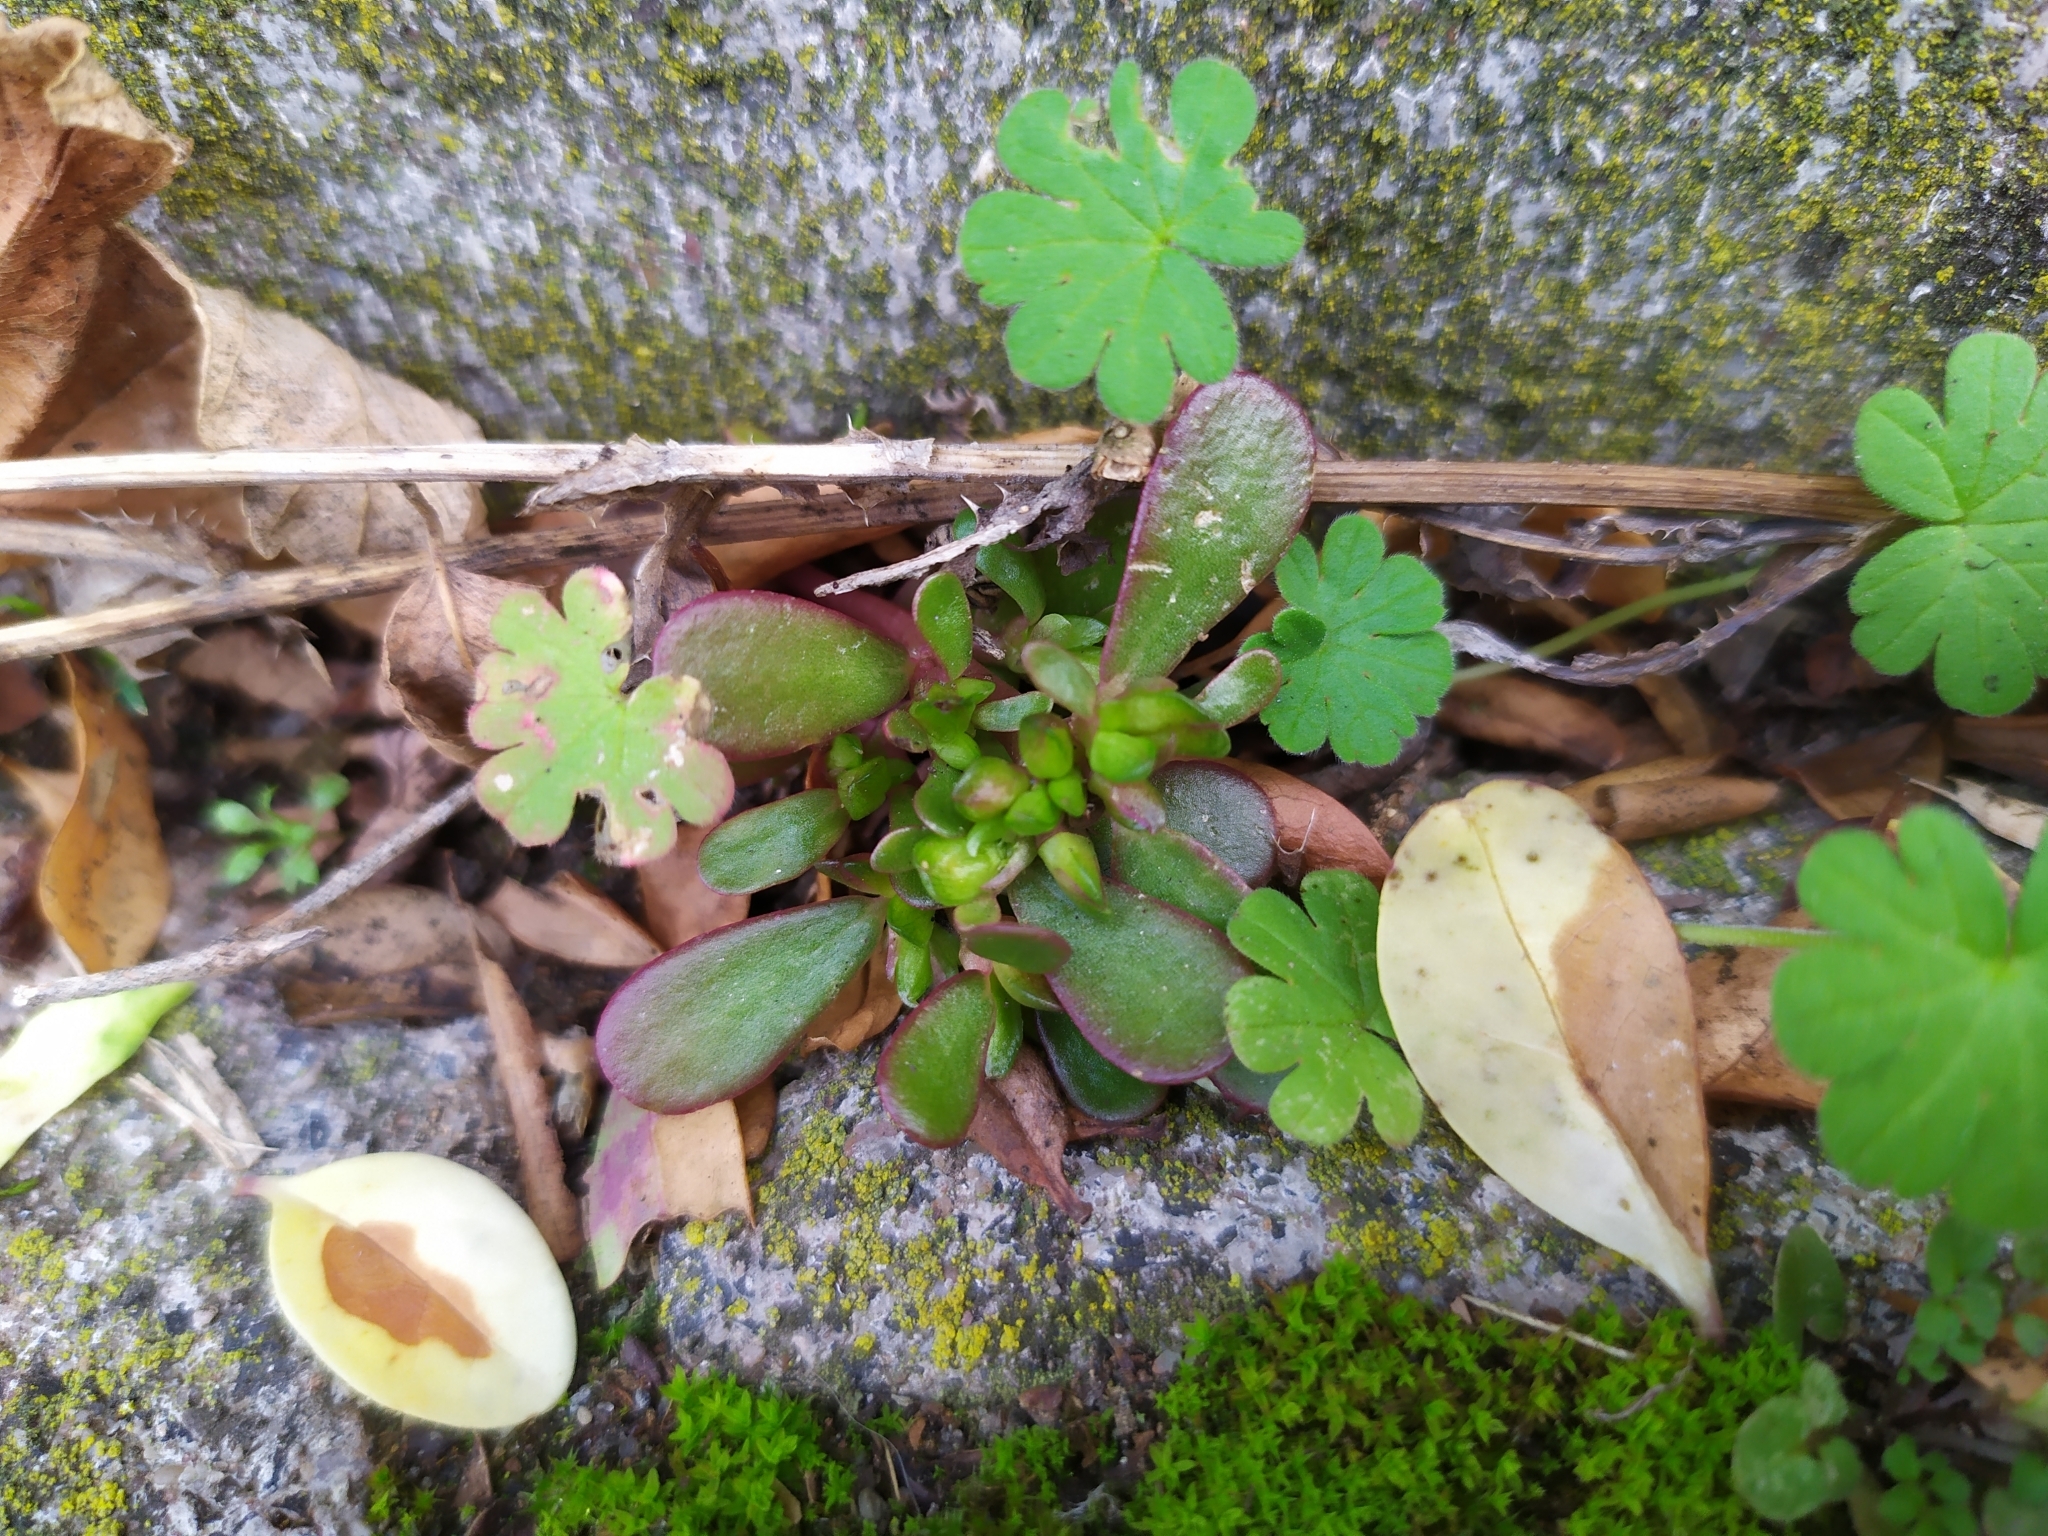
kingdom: Plantae
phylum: Tracheophyta
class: Magnoliopsida
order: Caryophyllales
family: Portulacaceae
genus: Portulaca
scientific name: Portulaca oleracea
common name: Common purslane
